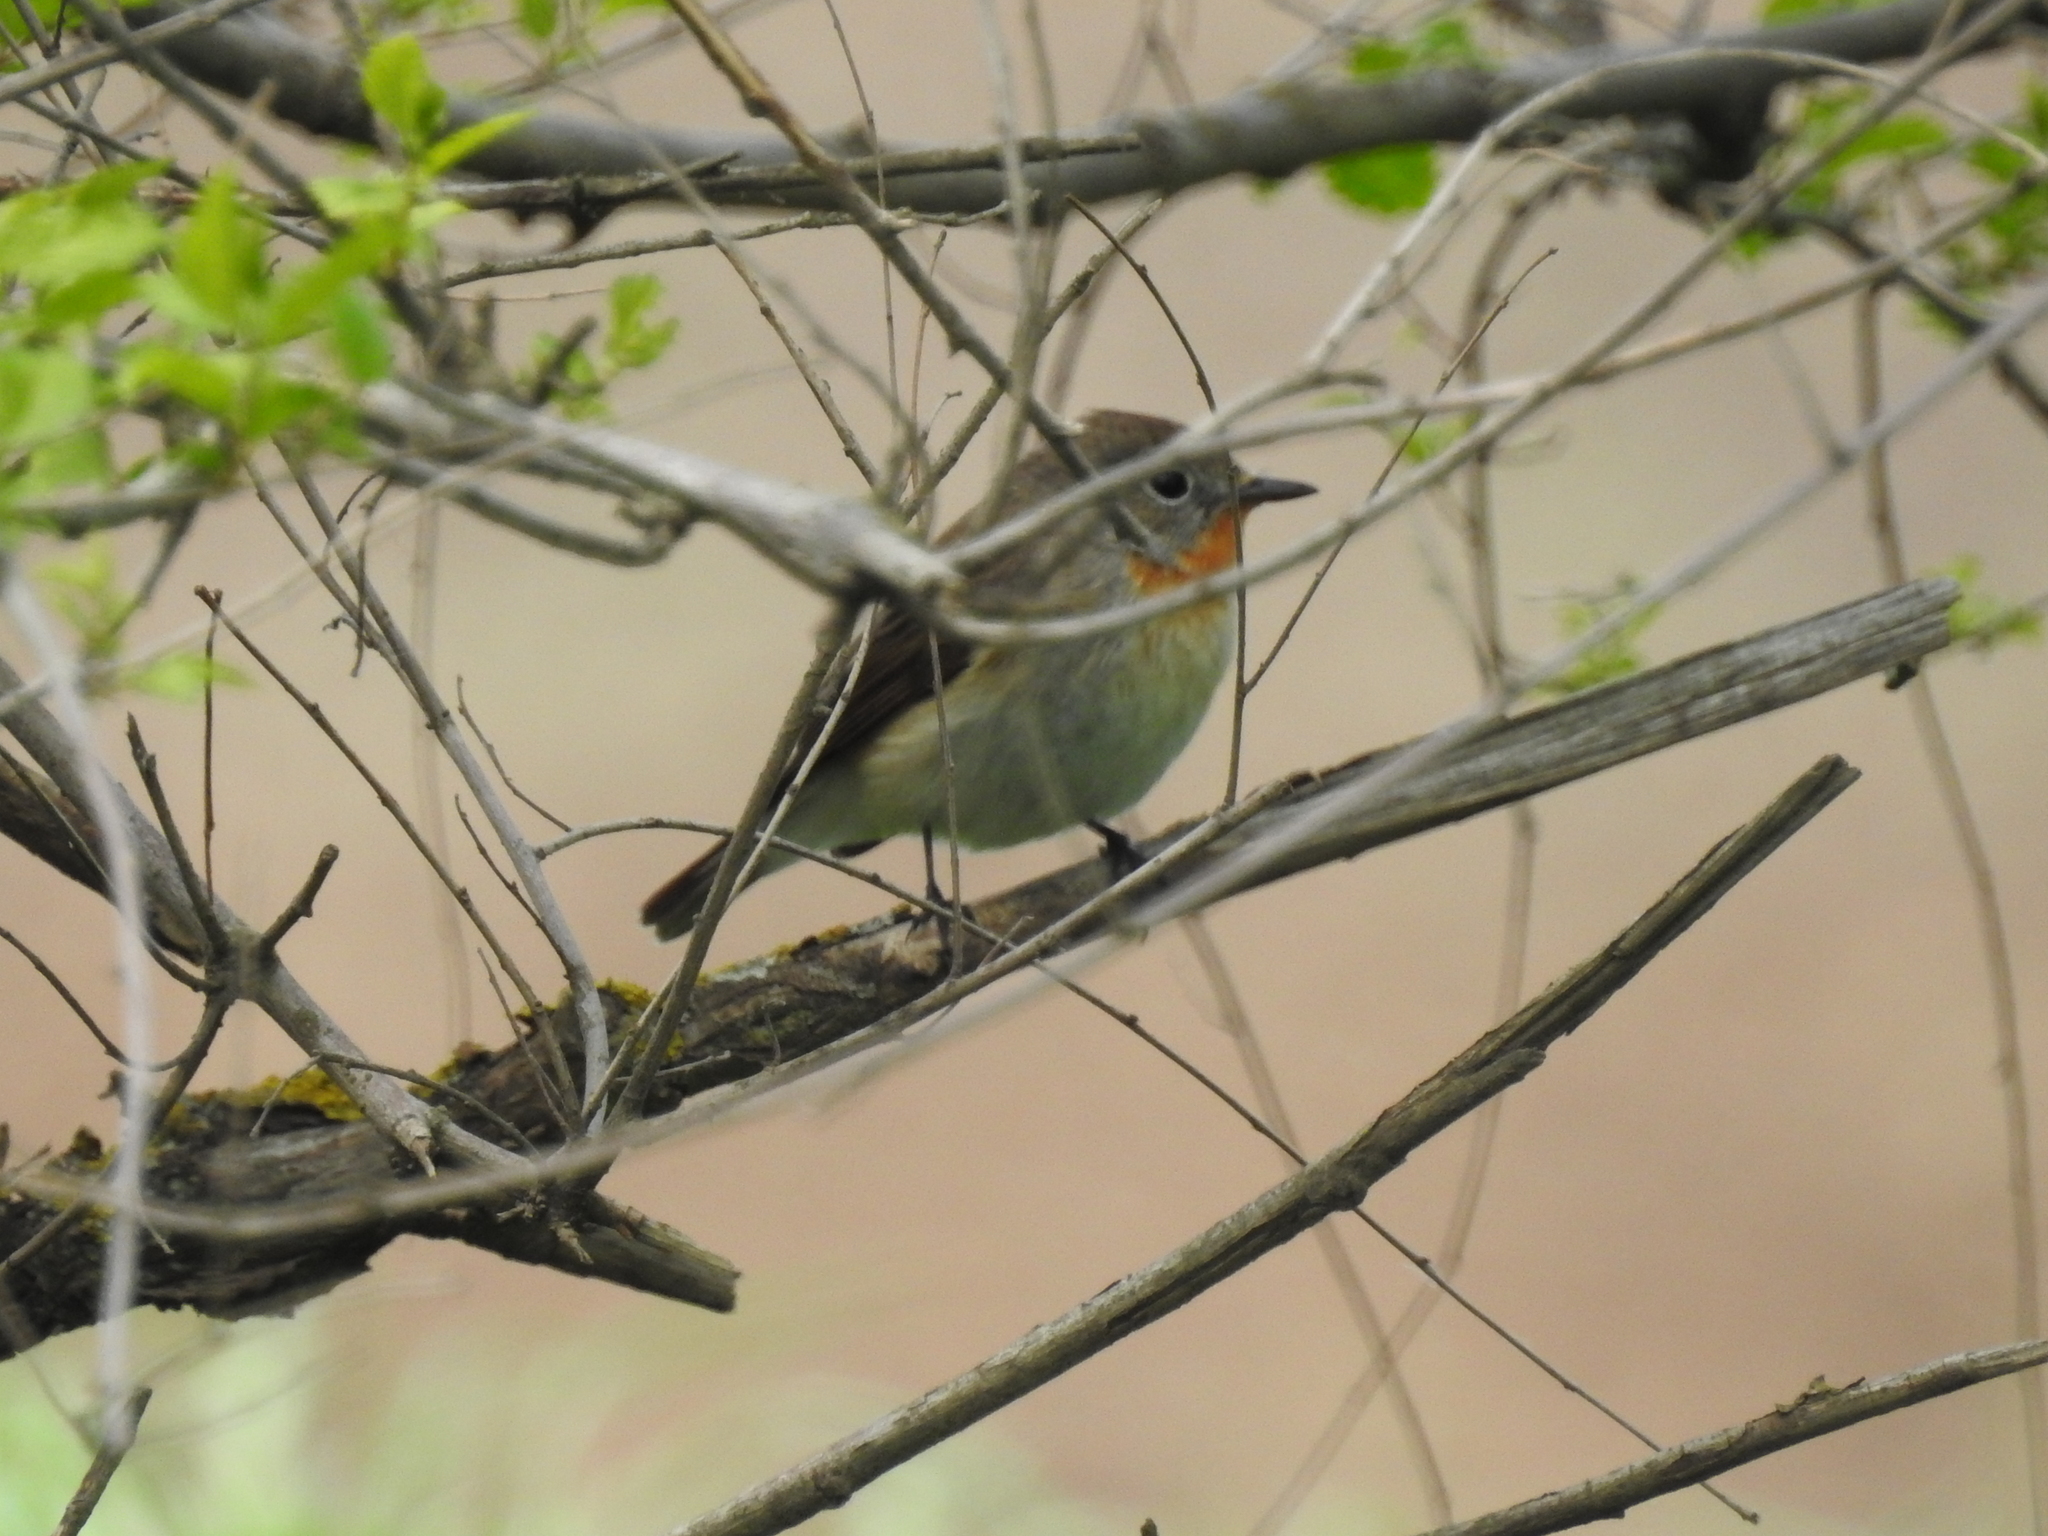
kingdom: Animalia
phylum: Chordata
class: Aves
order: Passeriformes
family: Muscicapidae
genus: Ficedula
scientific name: Ficedula parva
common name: Red-breasted flycatcher
